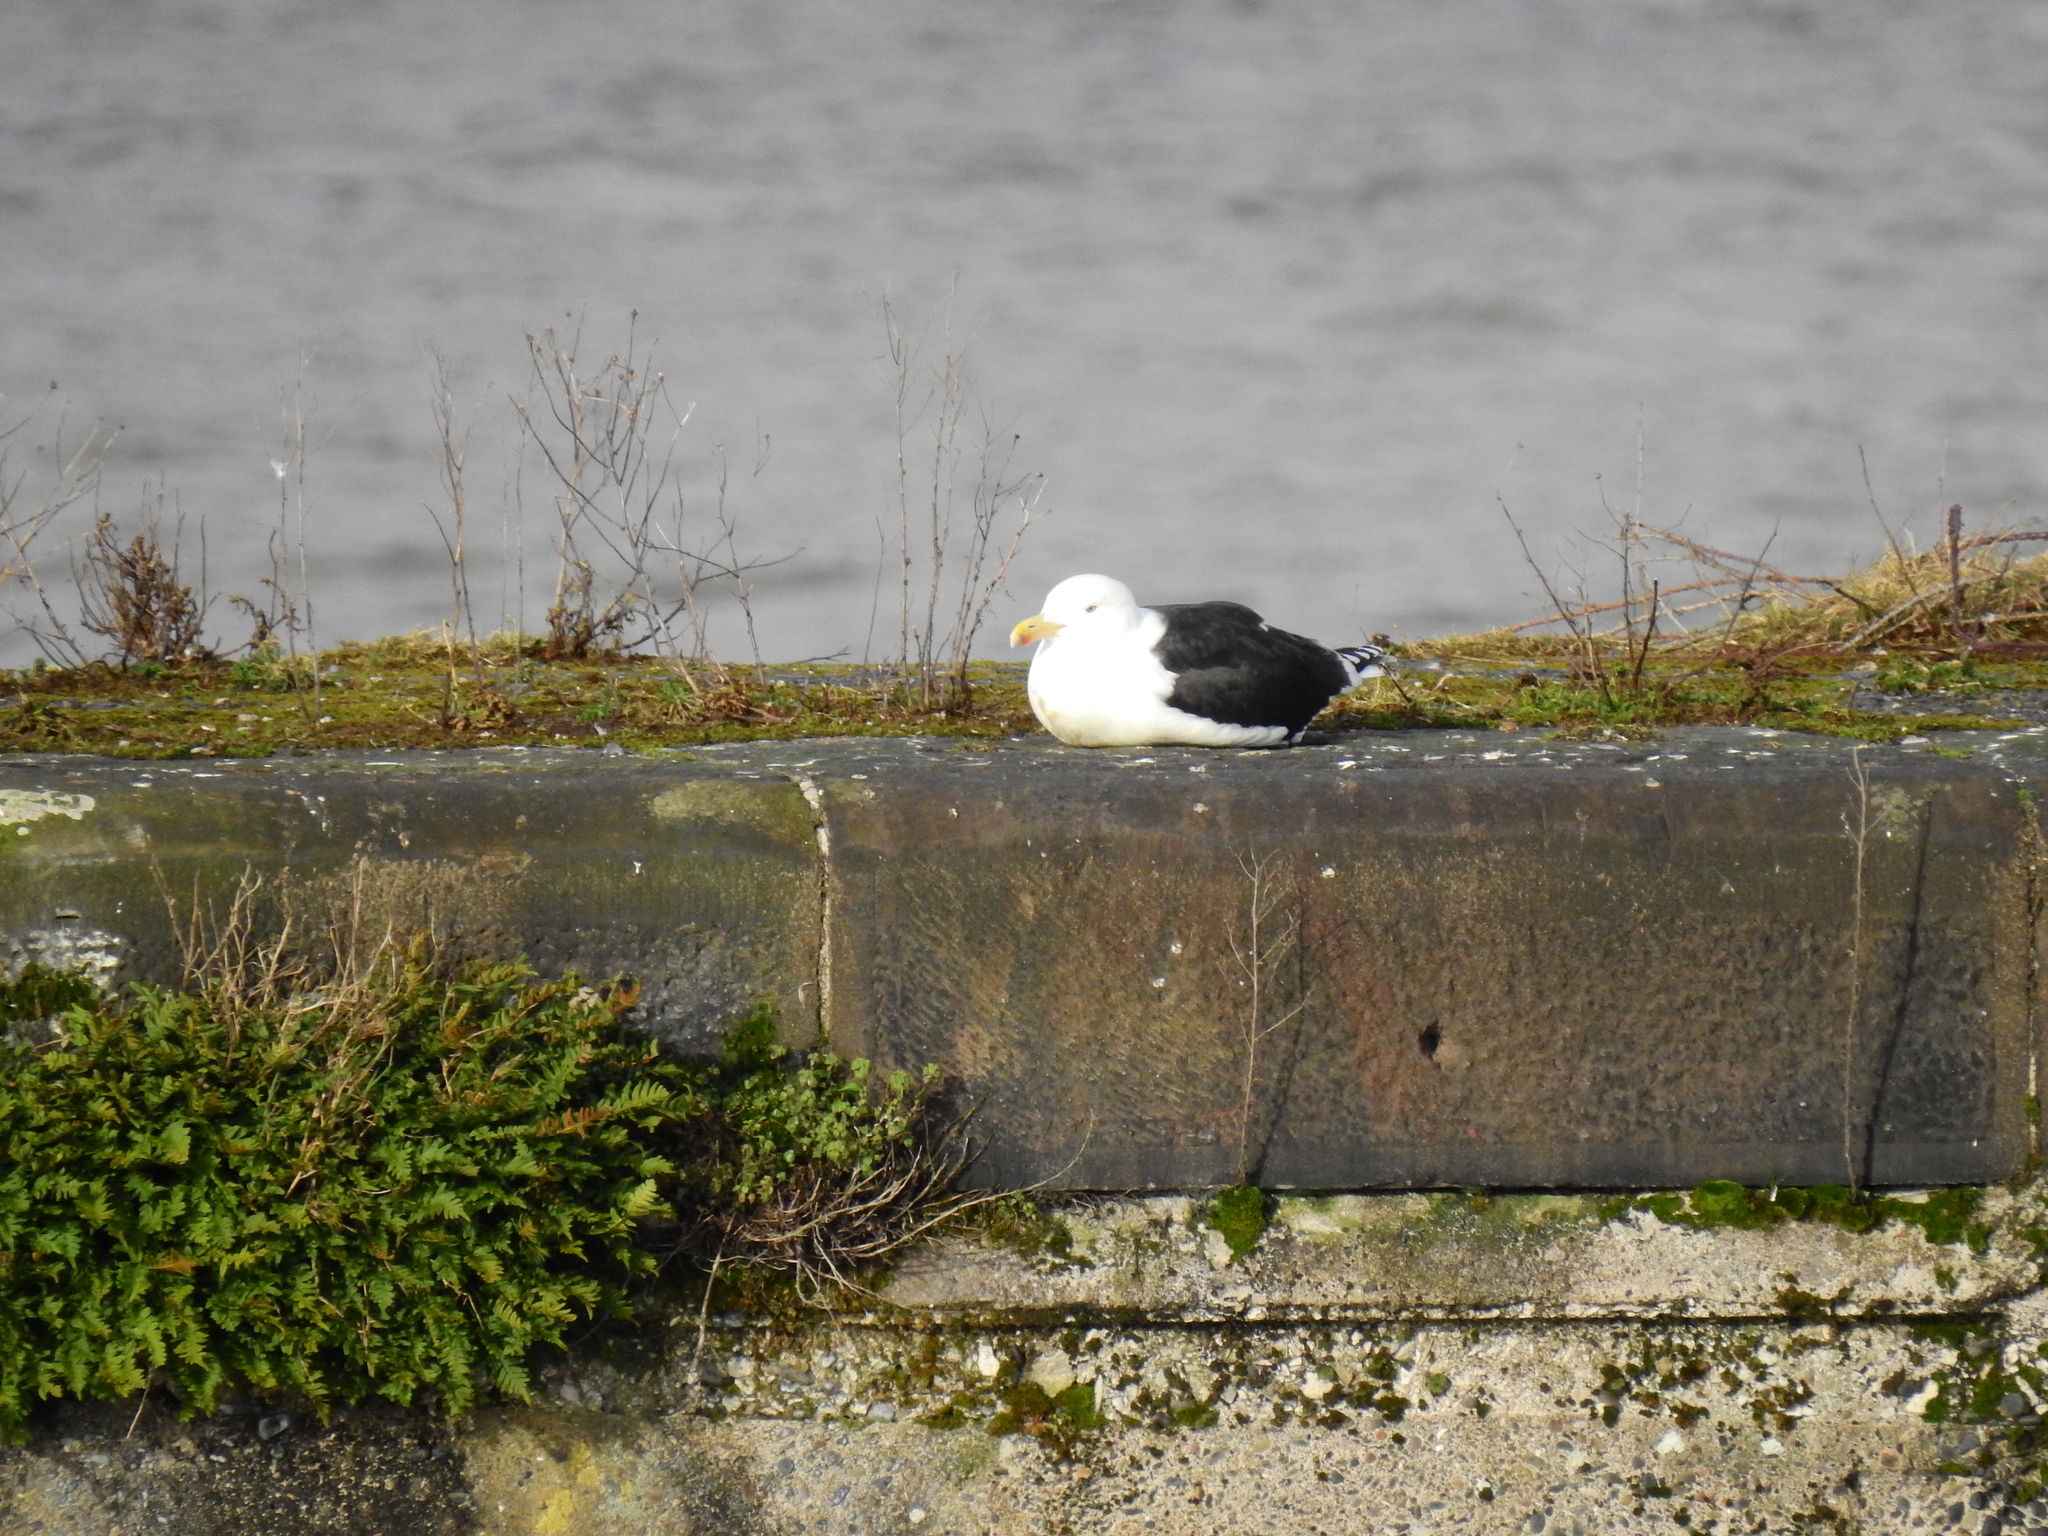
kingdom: Animalia
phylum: Chordata
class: Aves
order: Charadriiformes
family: Laridae
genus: Larus
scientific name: Larus marinus
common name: Great black-backed gull
